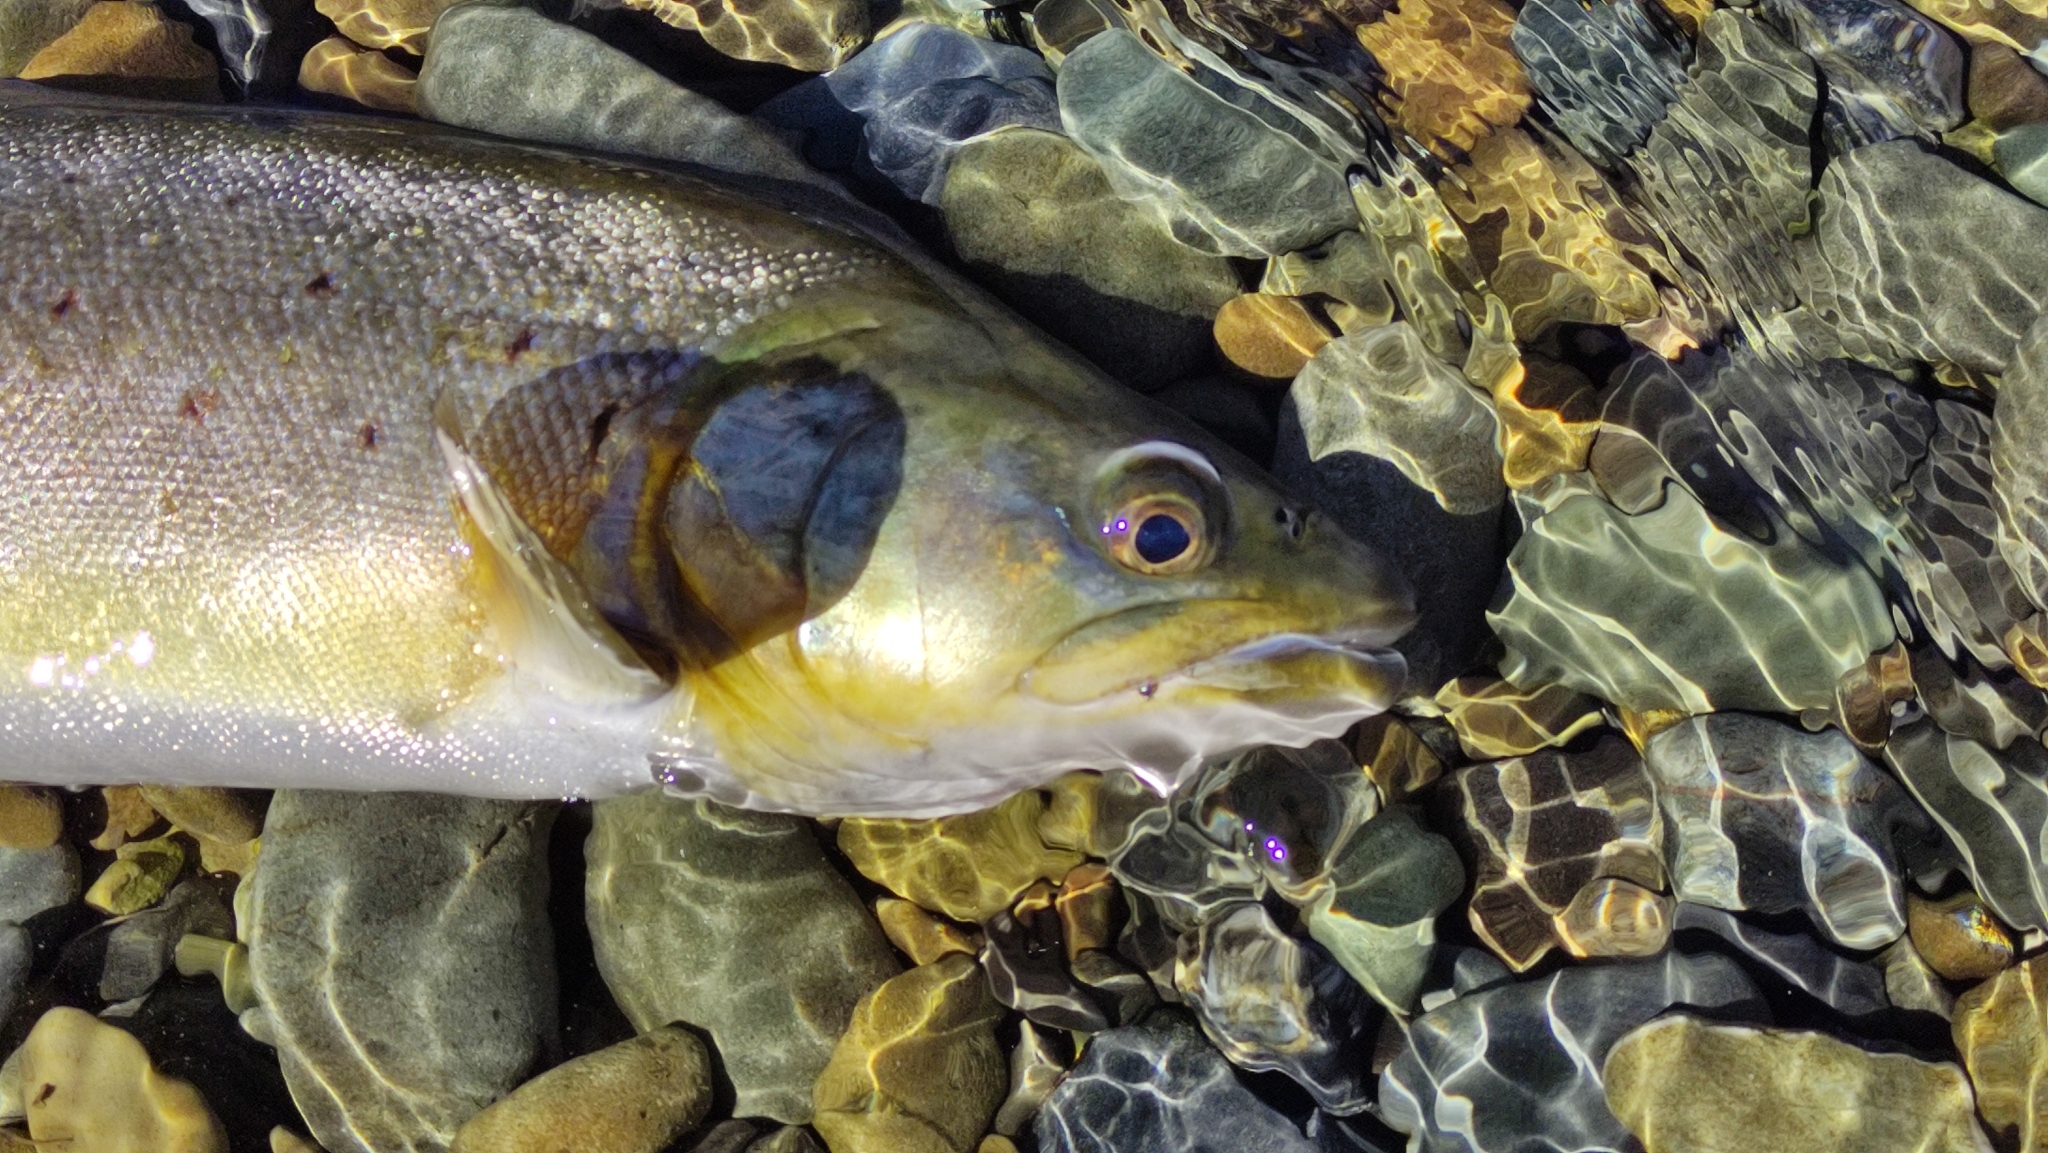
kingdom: Animalia
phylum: Chordata
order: Salmoniformes
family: Salmonidae
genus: Salmo
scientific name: Salmo trutta
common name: Brown trout
